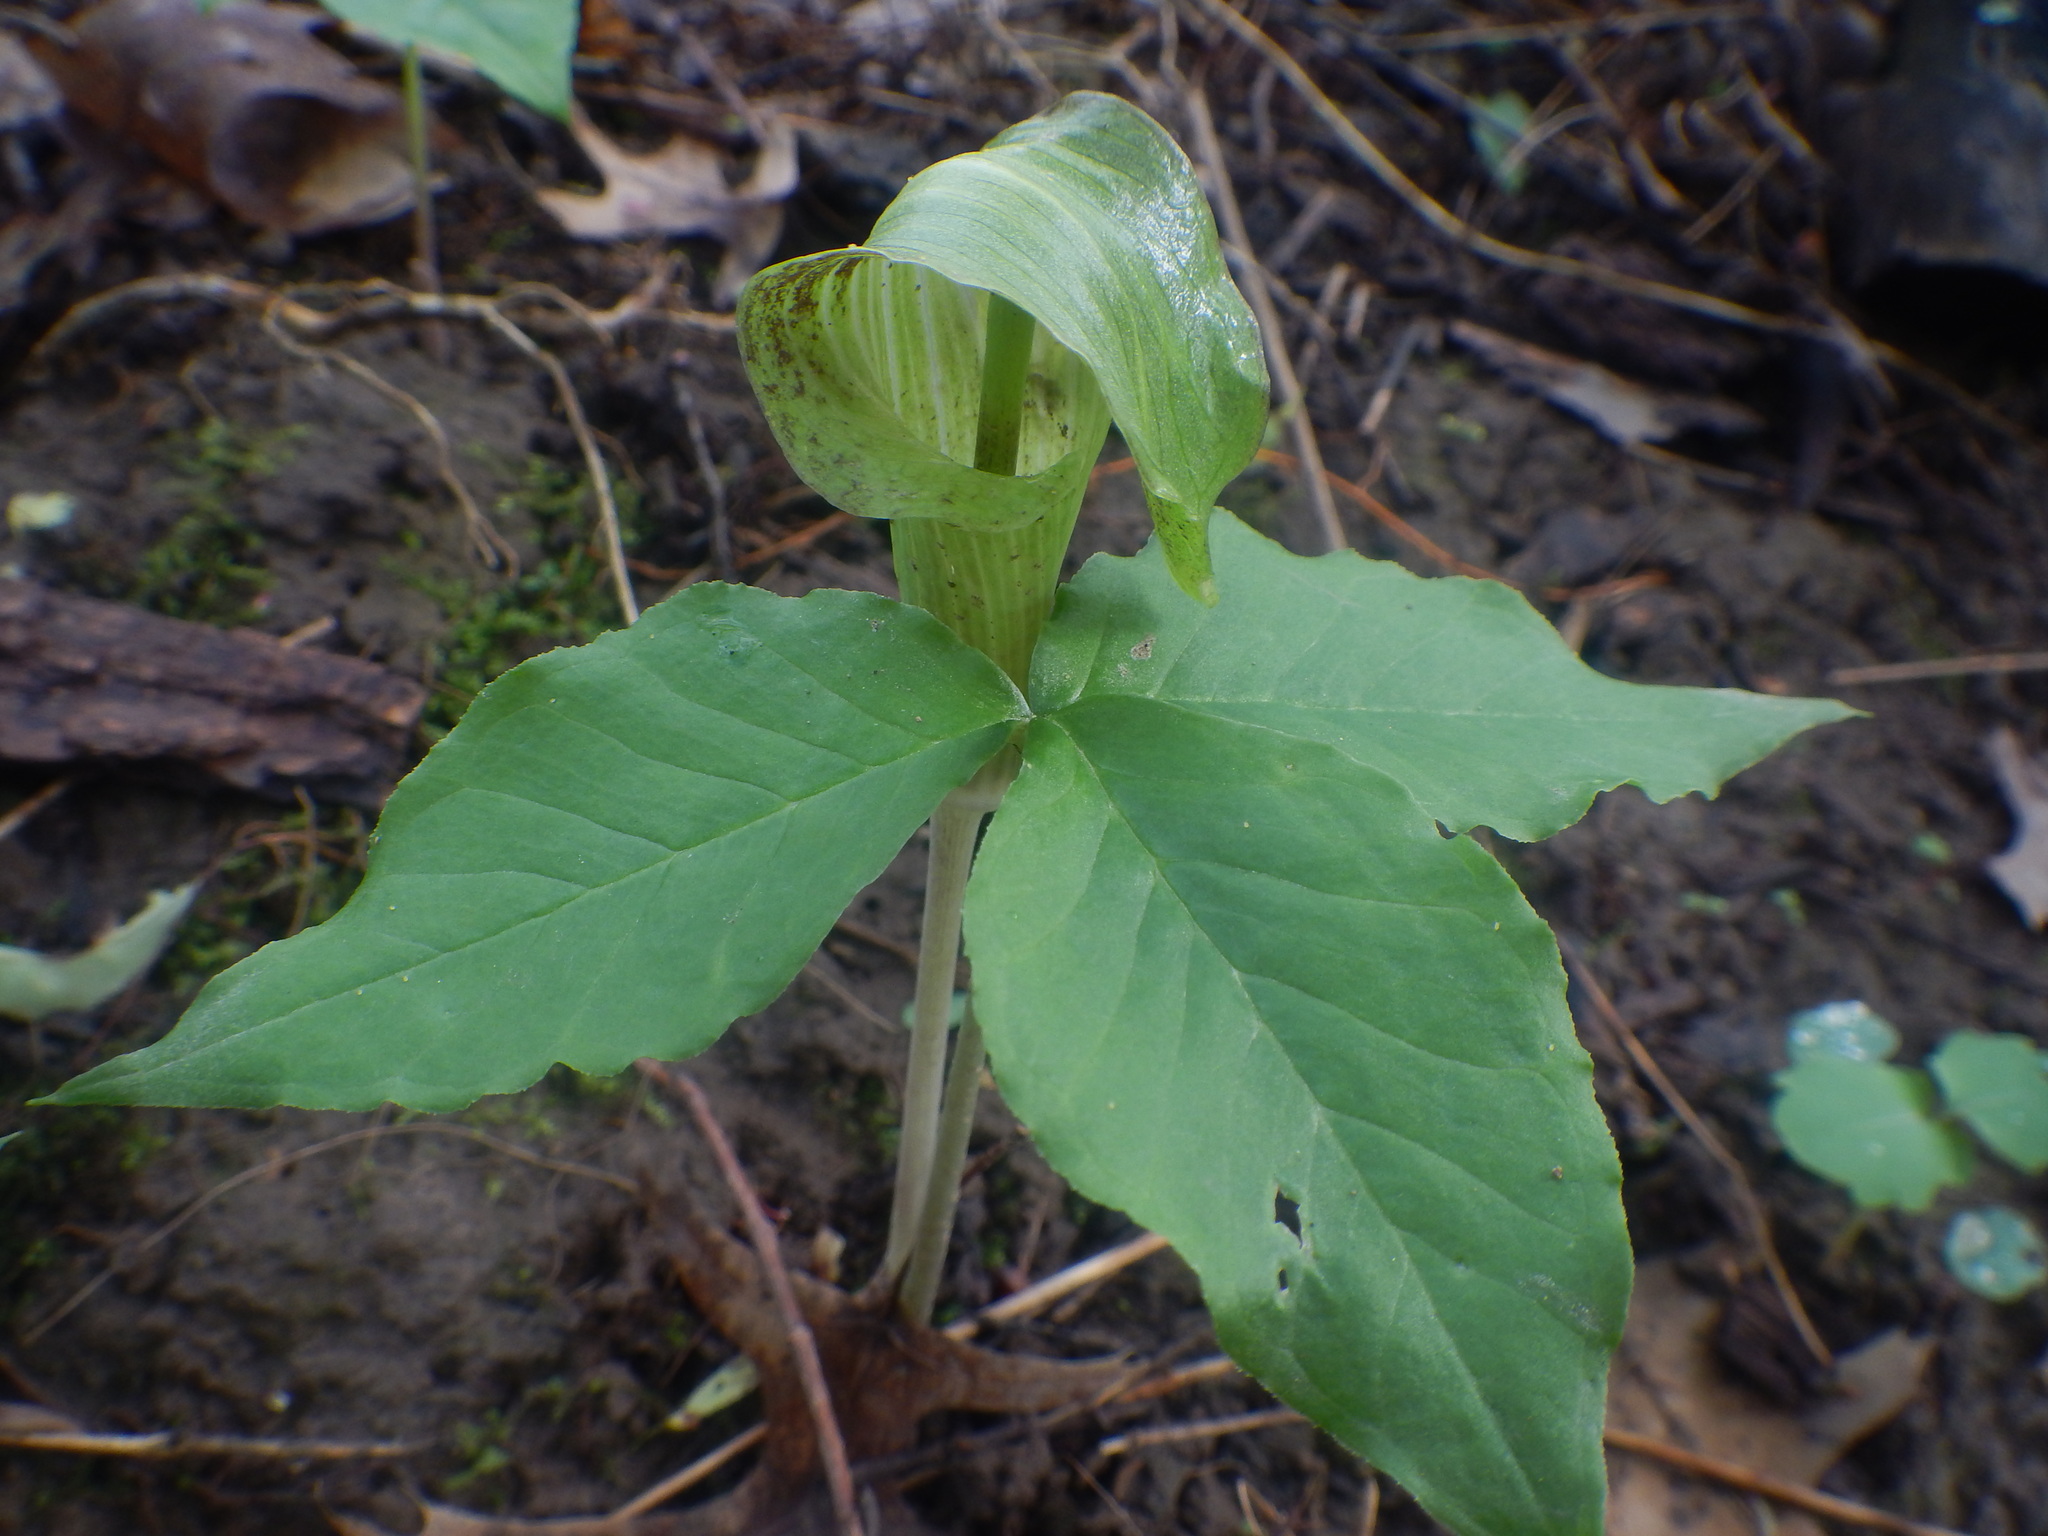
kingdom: Plantae
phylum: Tracheophyta
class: Liliopsida
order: Alismatales
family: Araceae
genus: Arisaema
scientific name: Arisaema triphyllum
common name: Jack-in-the-pulpit
